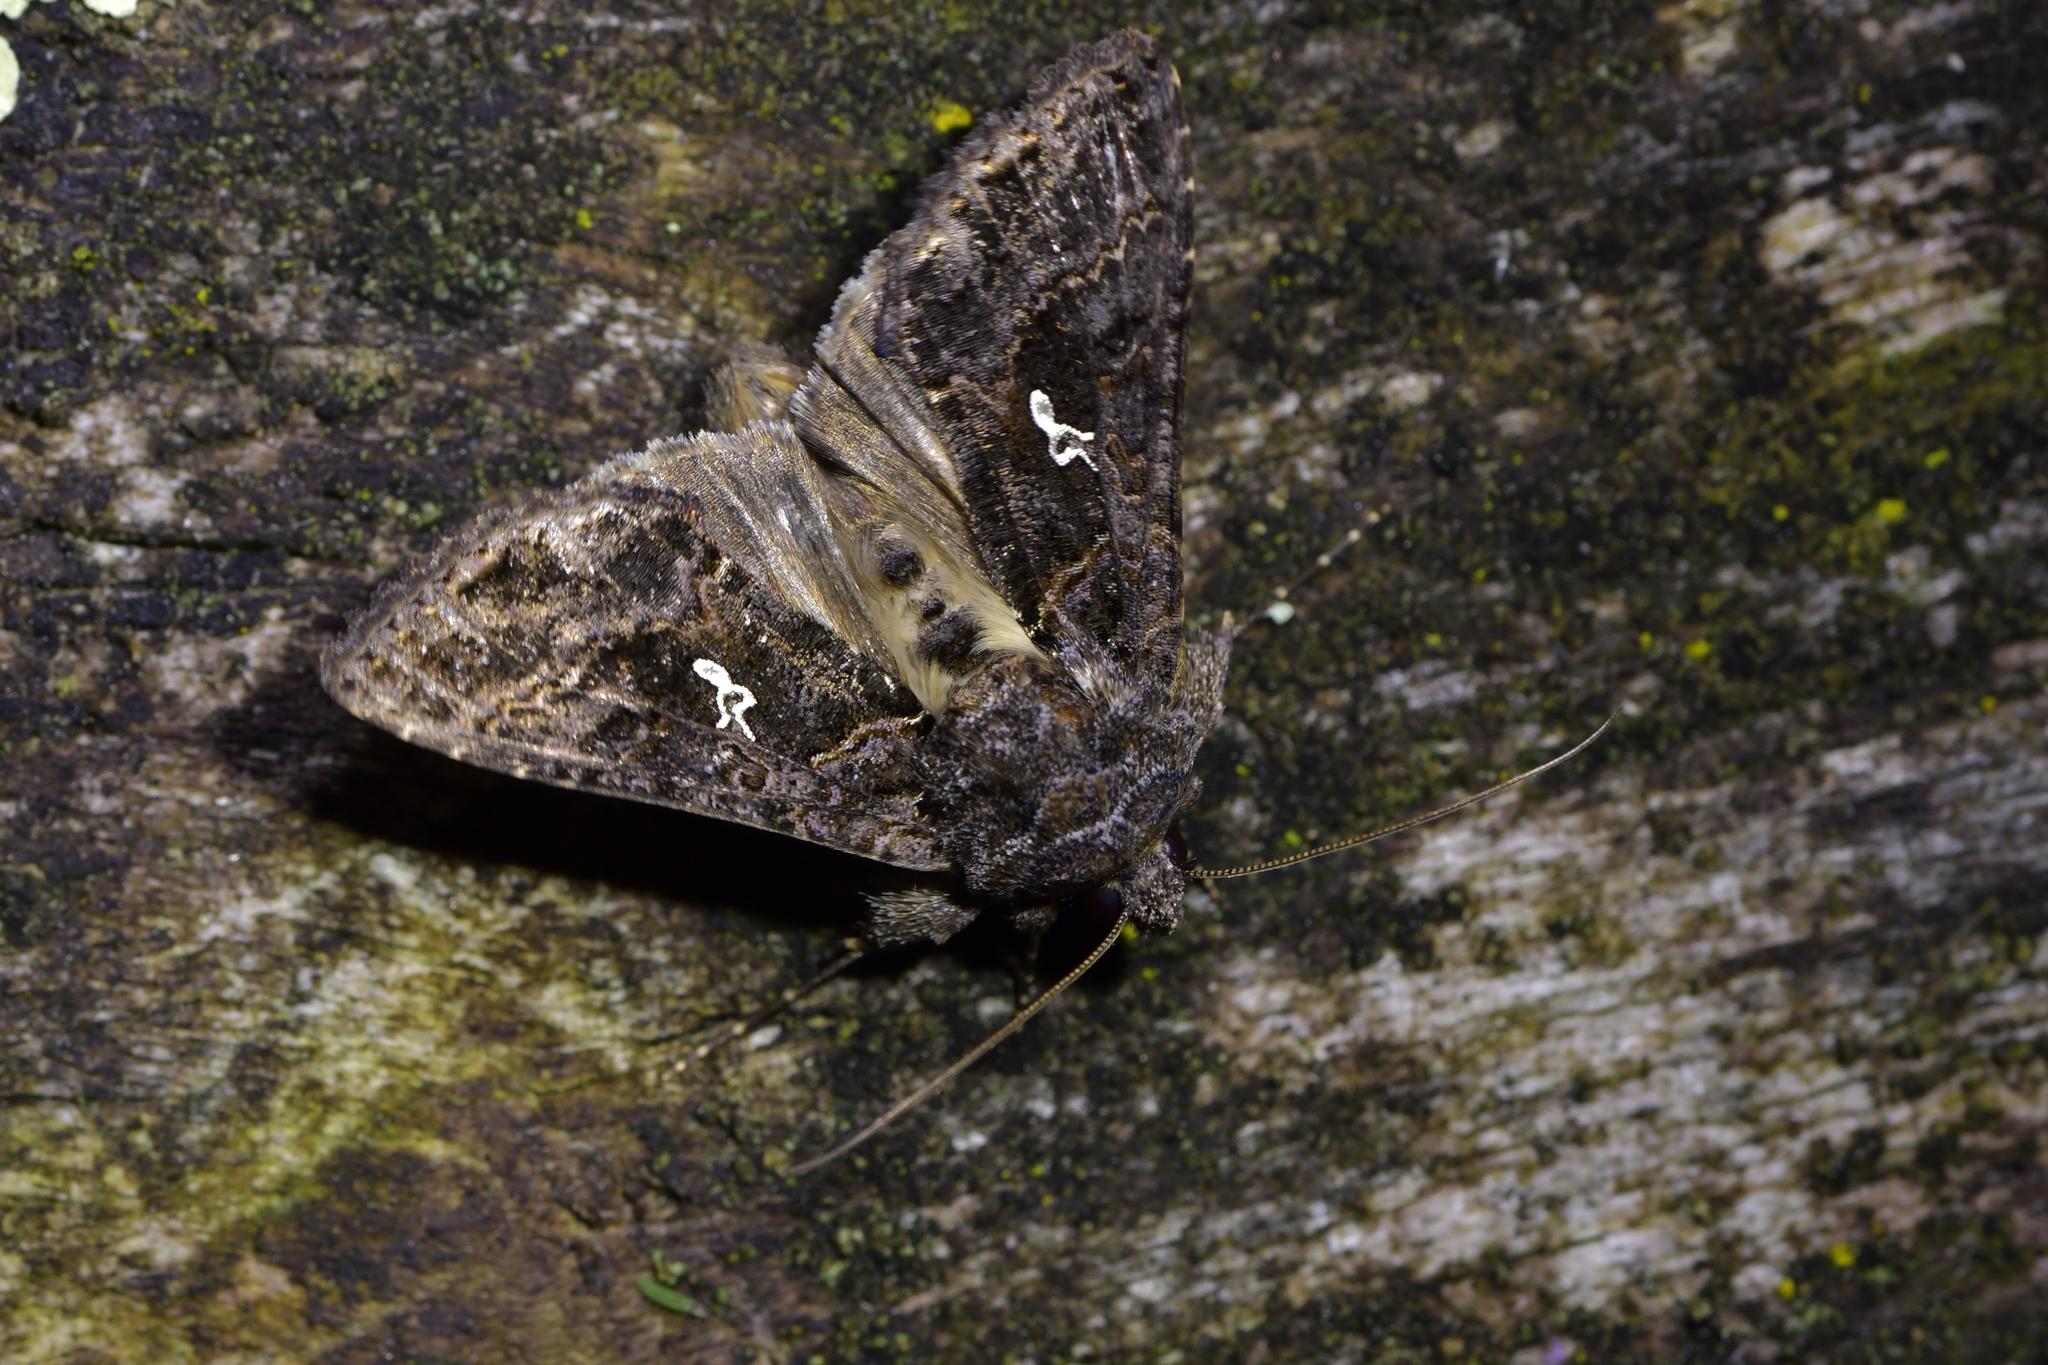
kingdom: Animalia
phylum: Arthropoda
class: Insecta
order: Lepidoptera
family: Noctuidae
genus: Ctenoplusia
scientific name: Ctenoplusia limbirena
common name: Scar bank gem
